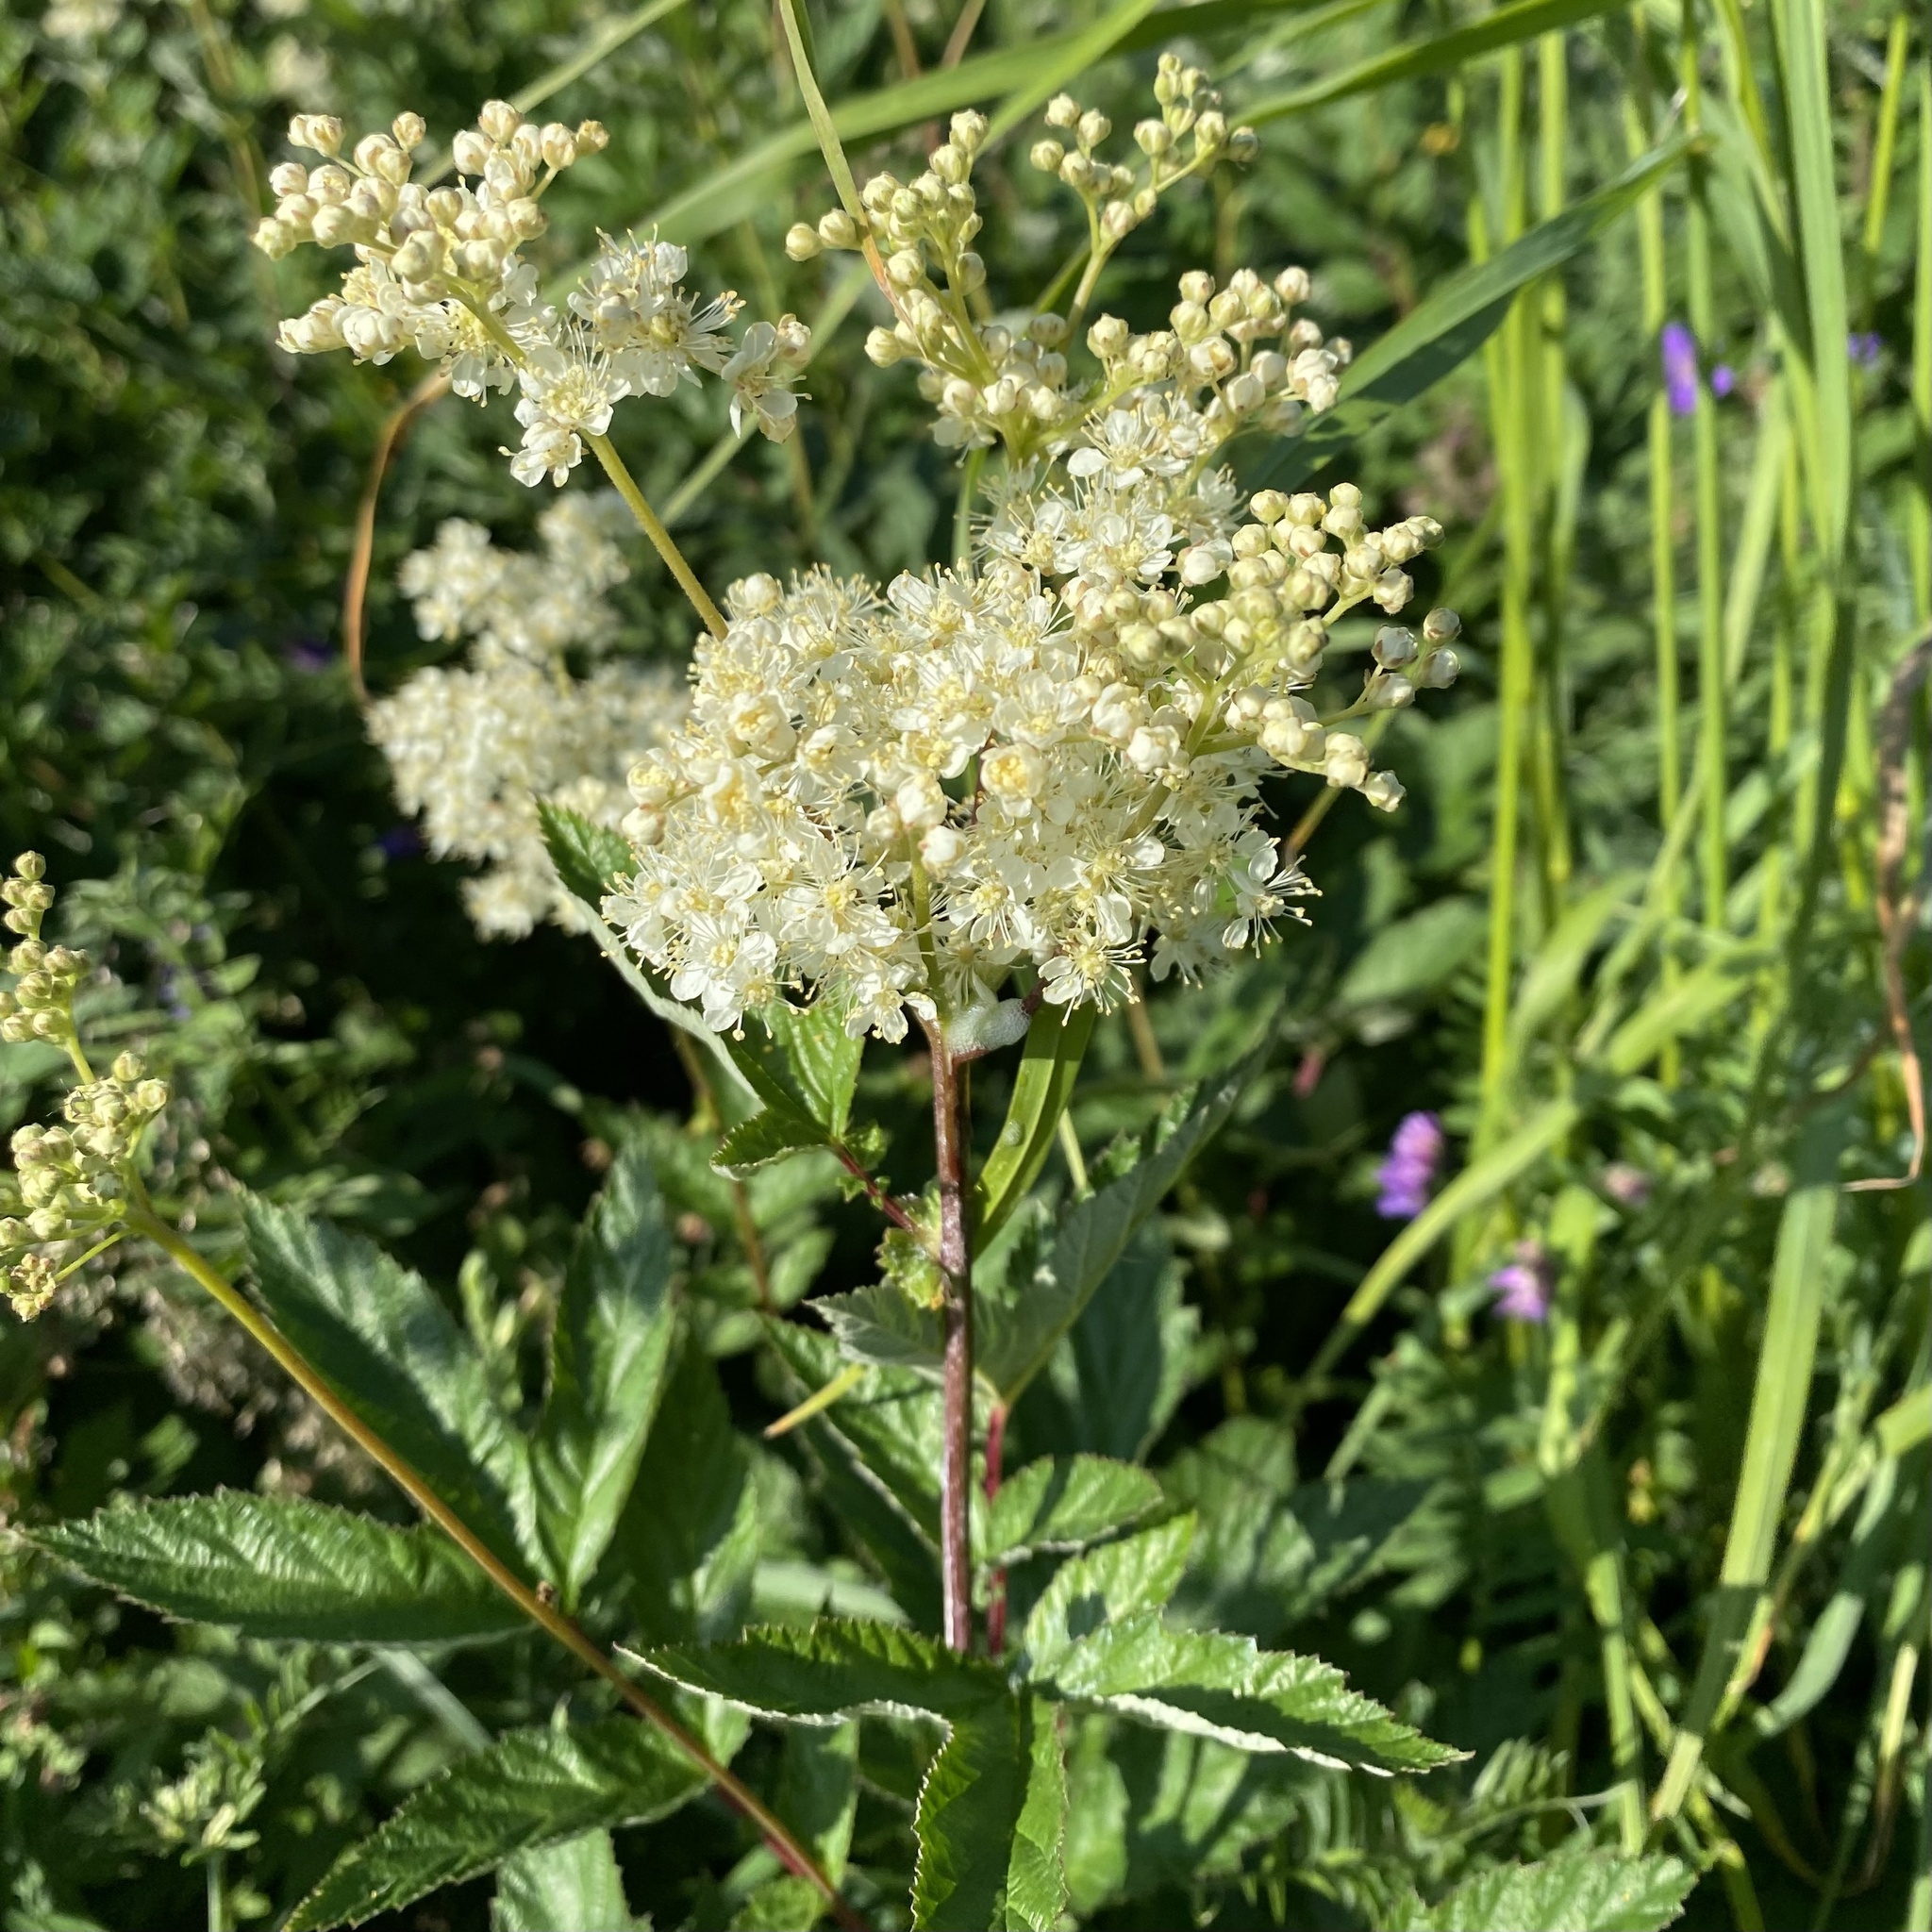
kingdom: Plantae
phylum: Tracheophyta
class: Magnoliopsida
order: Rosales
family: Rosaceae
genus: Filipendula
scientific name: Filipendula ulmaria
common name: Meadowsweet
